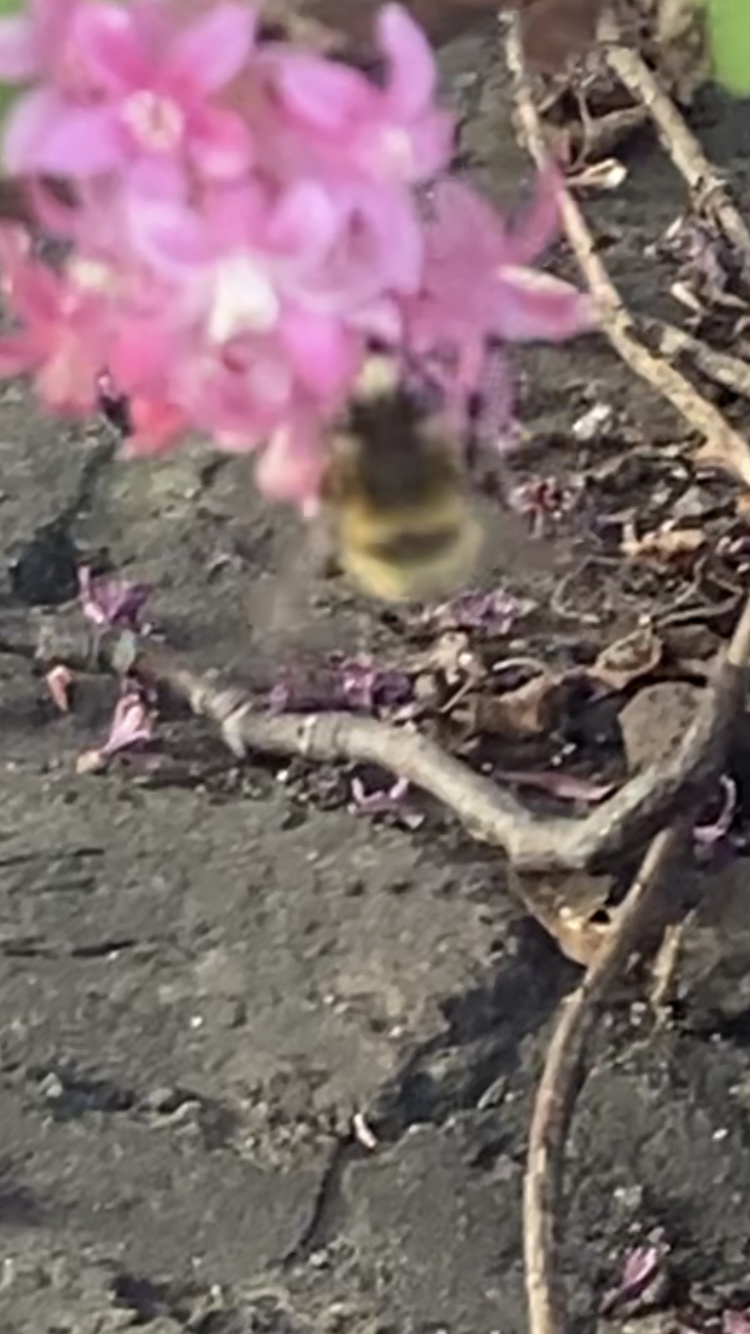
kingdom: Animalia
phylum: Arthropoda
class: Insecta
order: Hymenoptera
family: Apidae
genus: Anthophora
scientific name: Anthophora plumipes
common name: Hairy-footed flower bee
